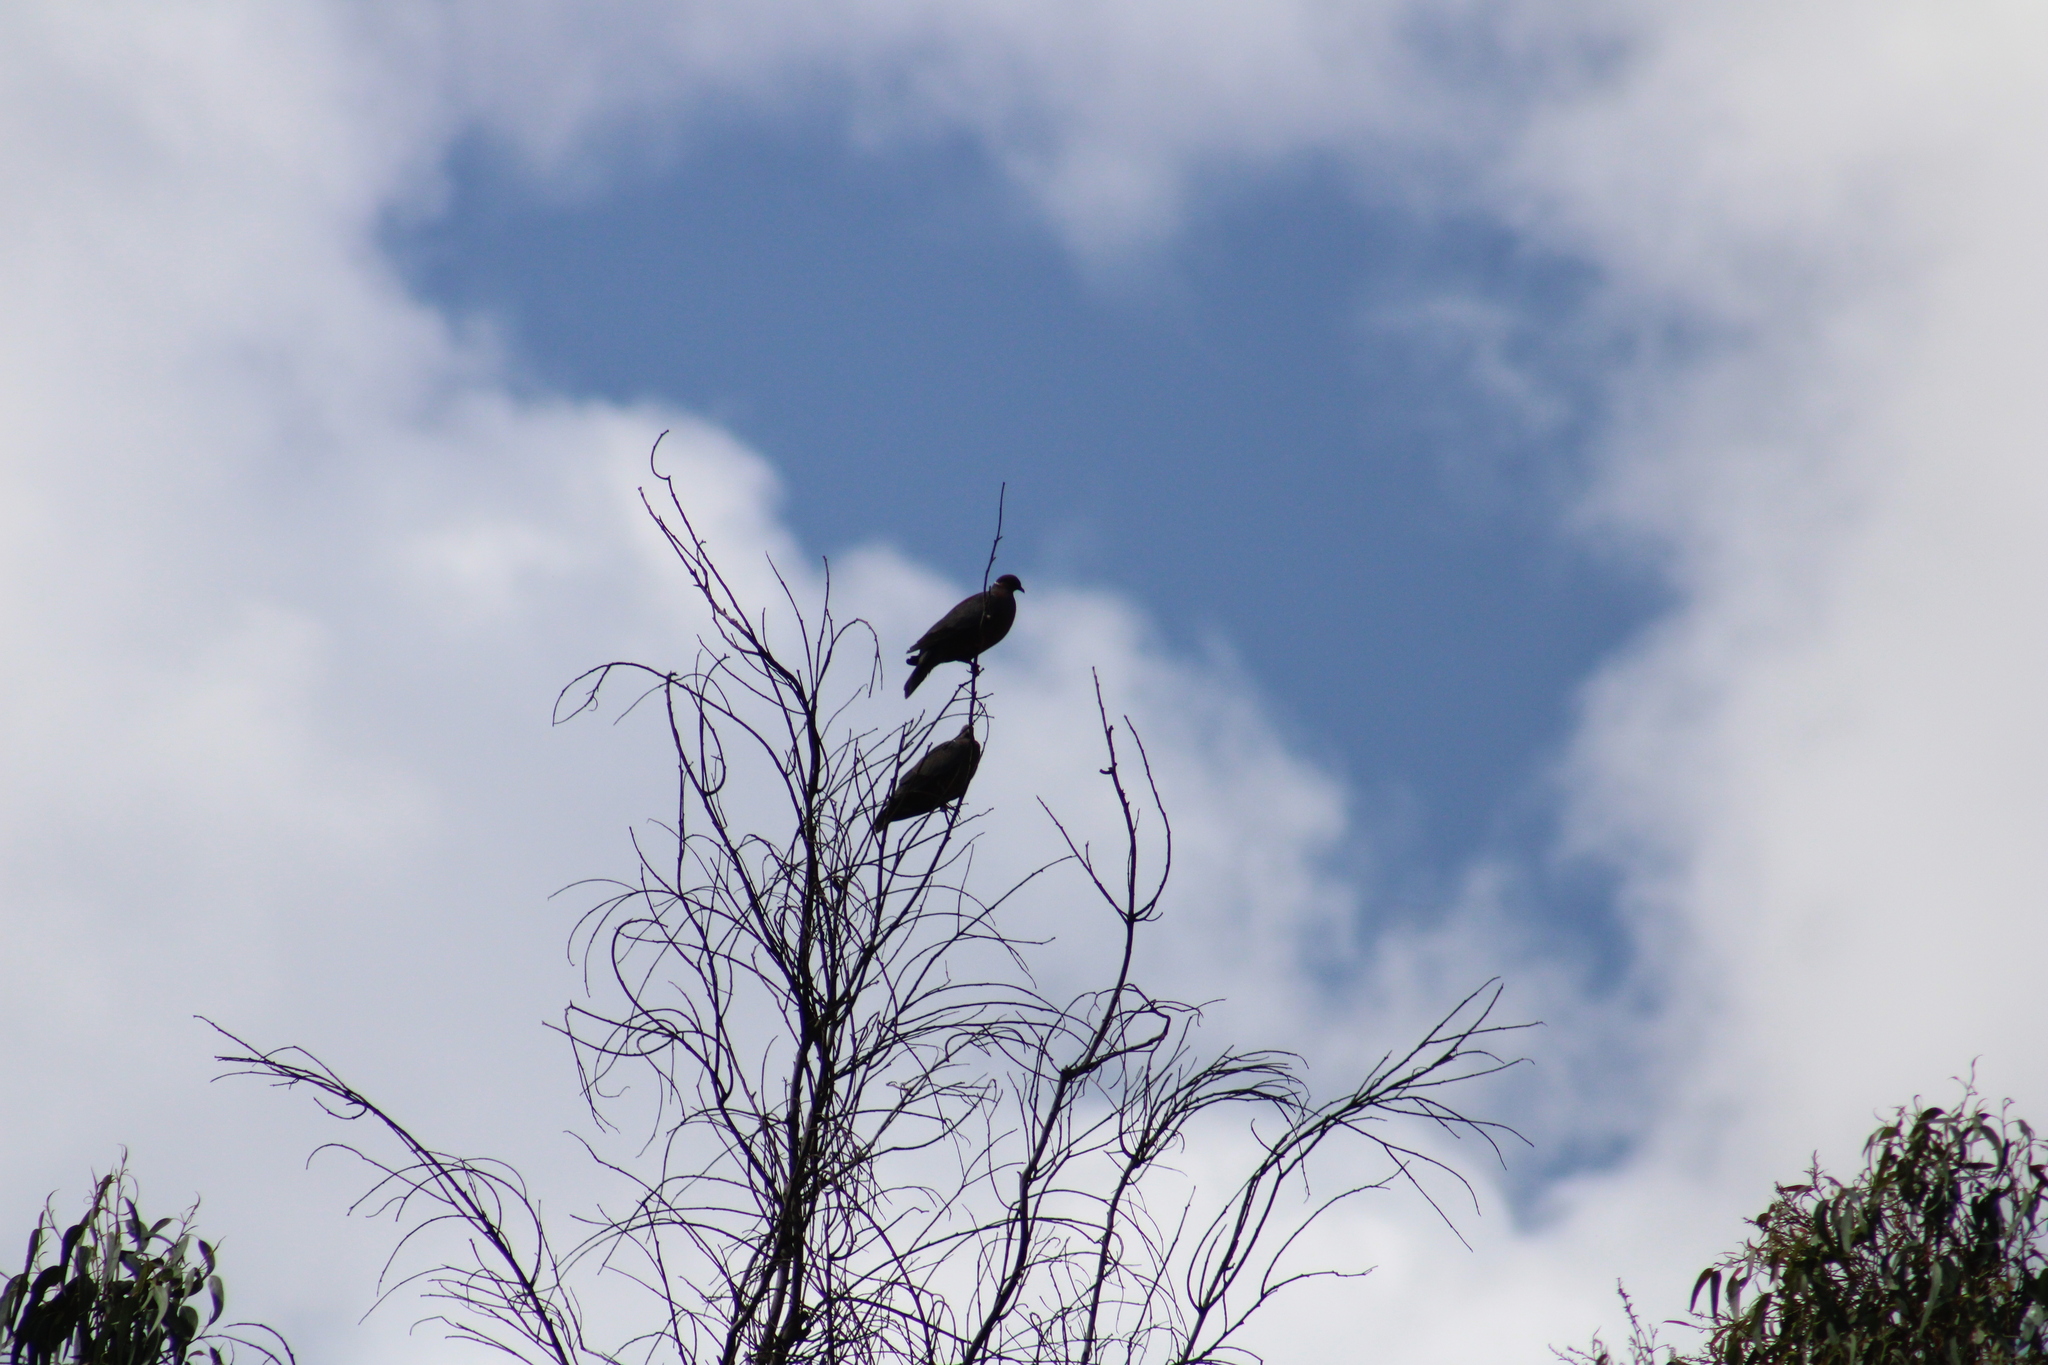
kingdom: Animalia
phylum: Chordata
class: Aves
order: Columbiformes
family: Columbidae
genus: Patagioenas
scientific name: Patagioenas araucana
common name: Chilean pigeon
